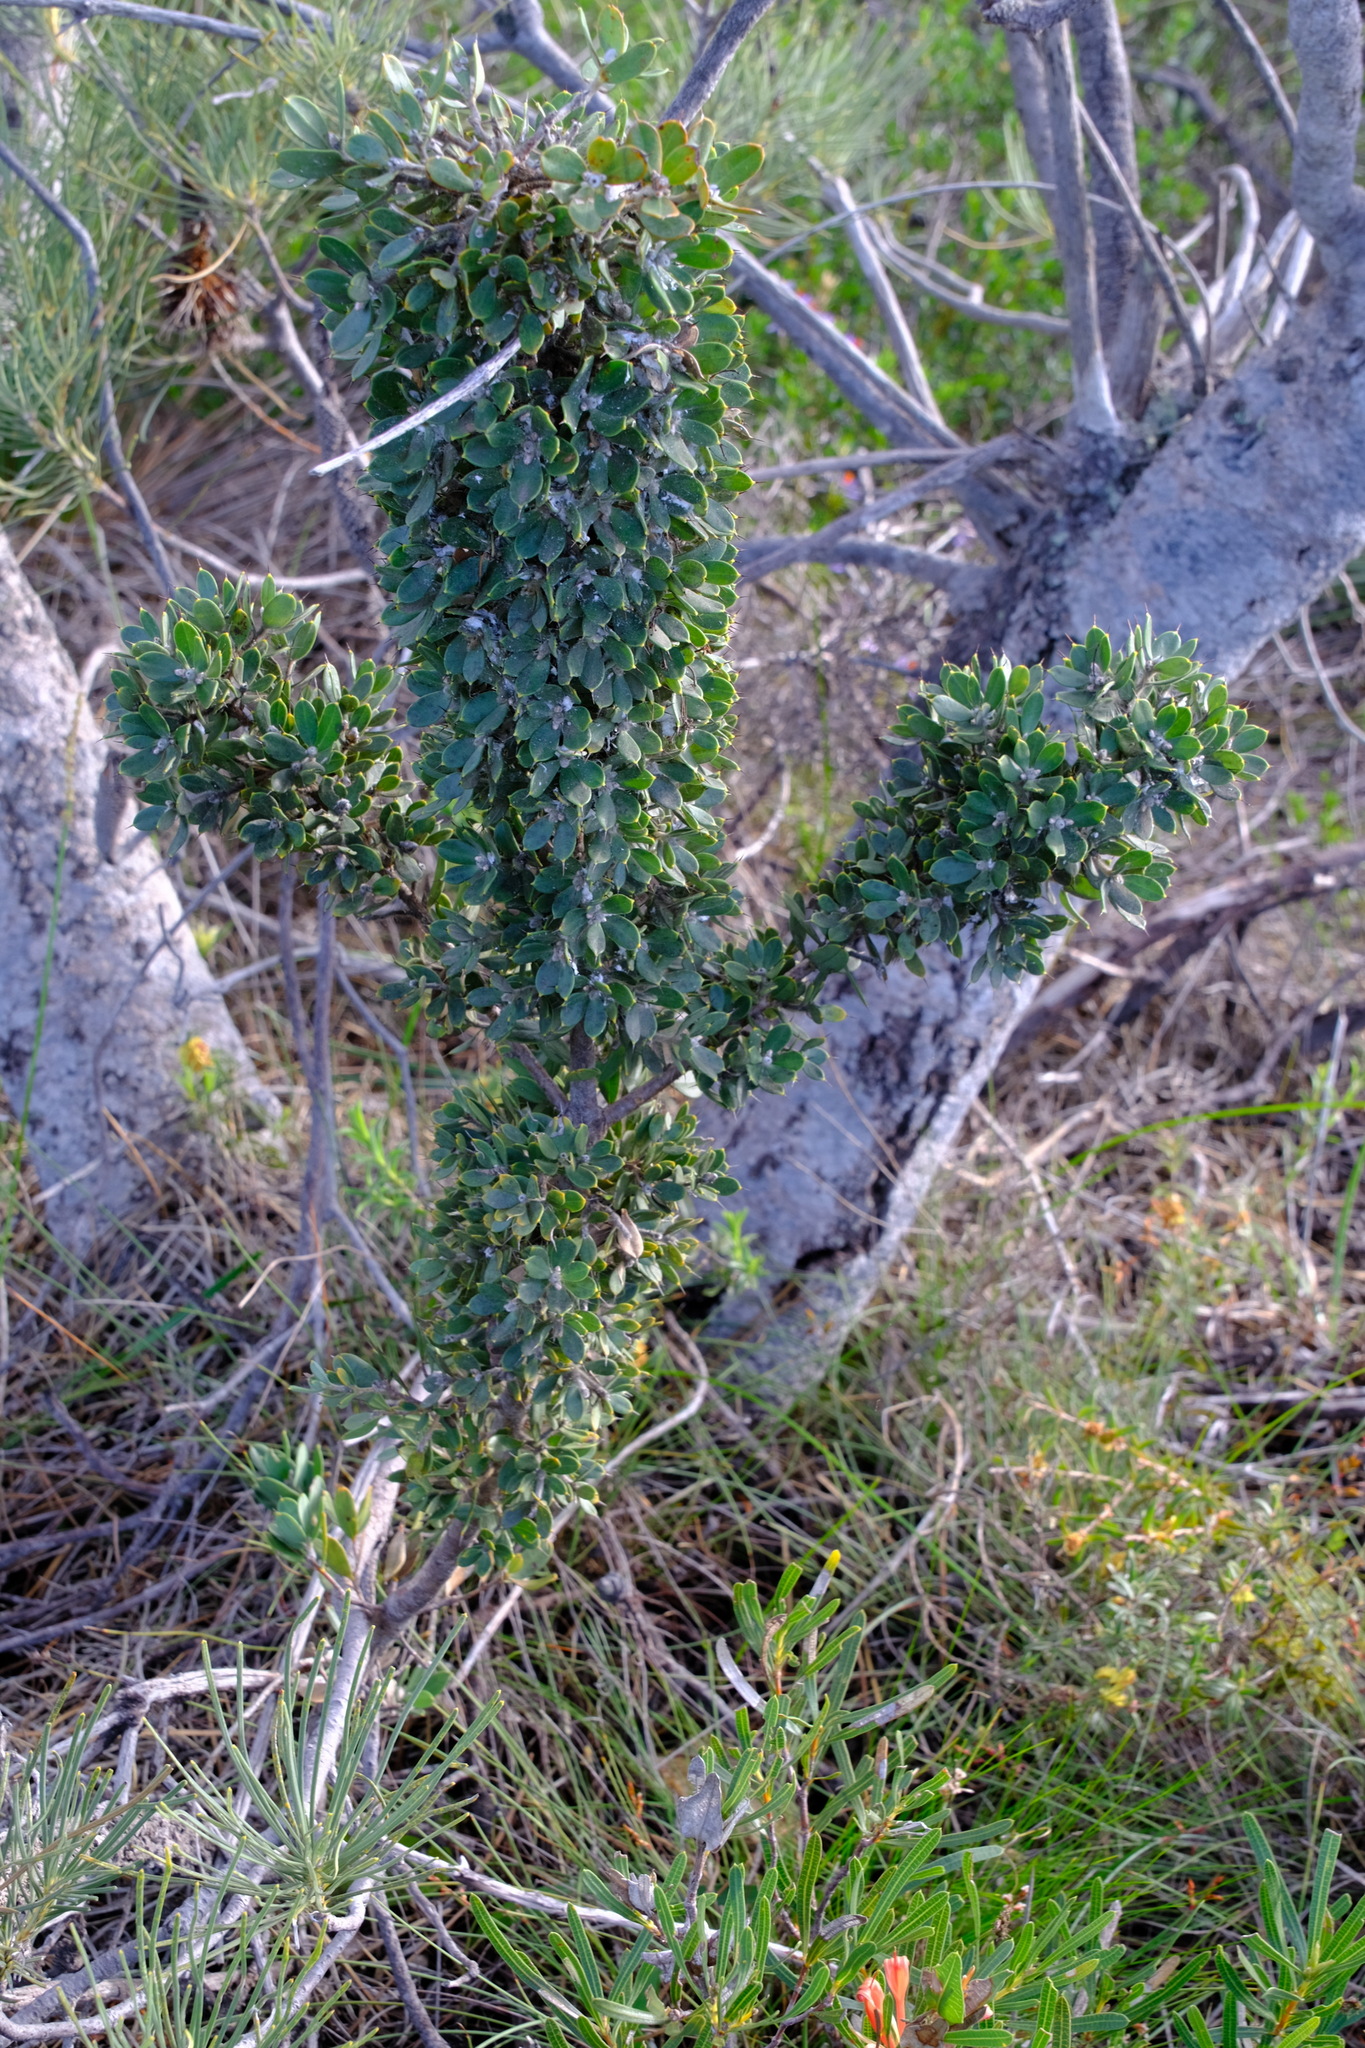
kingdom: Plantae
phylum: Tracheophyta
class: Magnoliopsida
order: Proteales
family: Proteaceae
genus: Hakea
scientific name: Hakea ruscifolia
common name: Candle hakea
